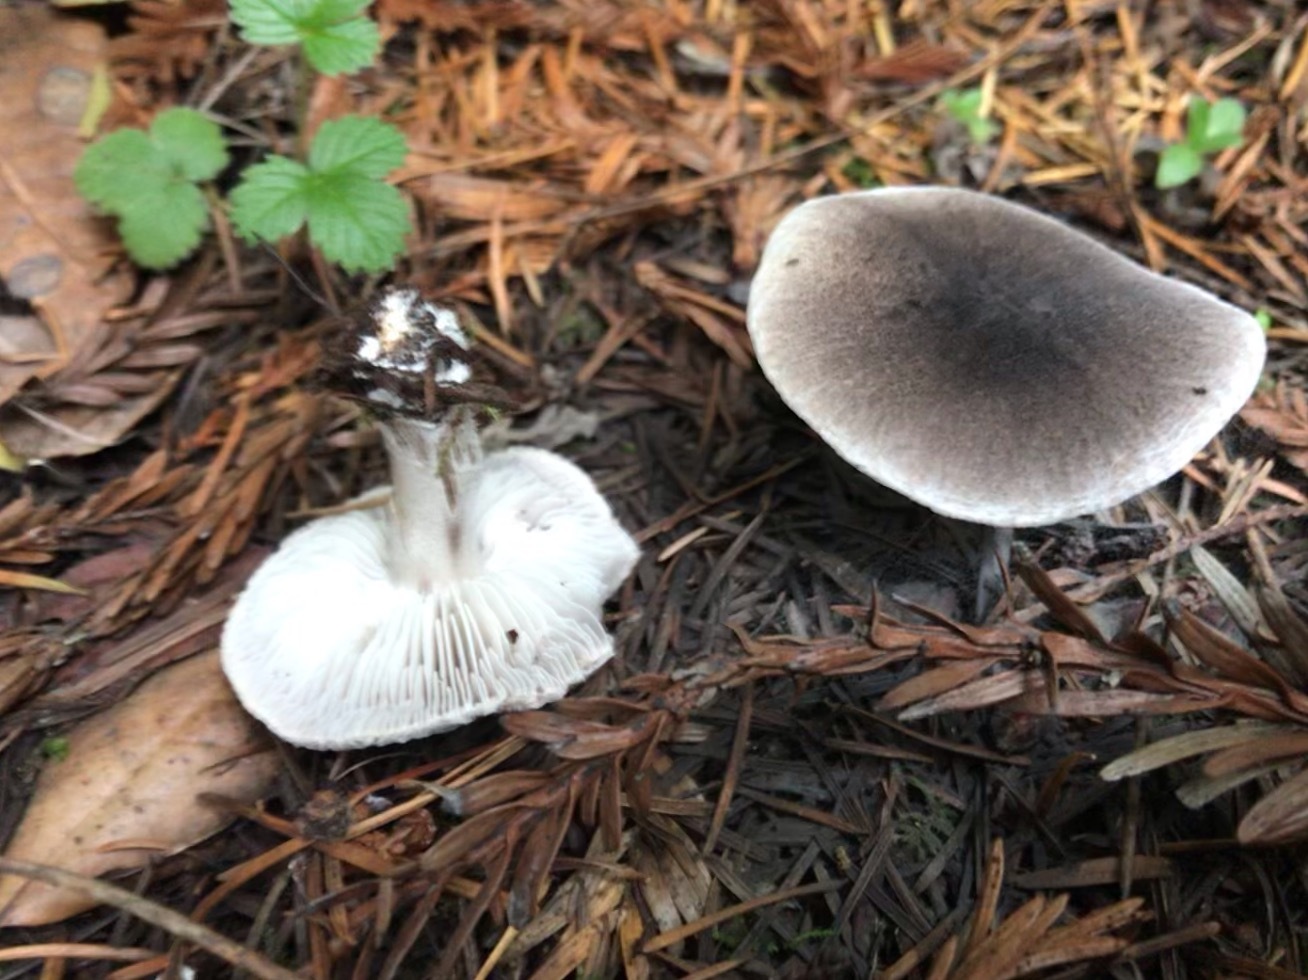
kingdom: Fungi
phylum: Basidiomycota
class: Agaricomycetes
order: Agaricales
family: Tricholomataceae
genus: Tricholoma
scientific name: Tricholoma terreum
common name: Grey knight
